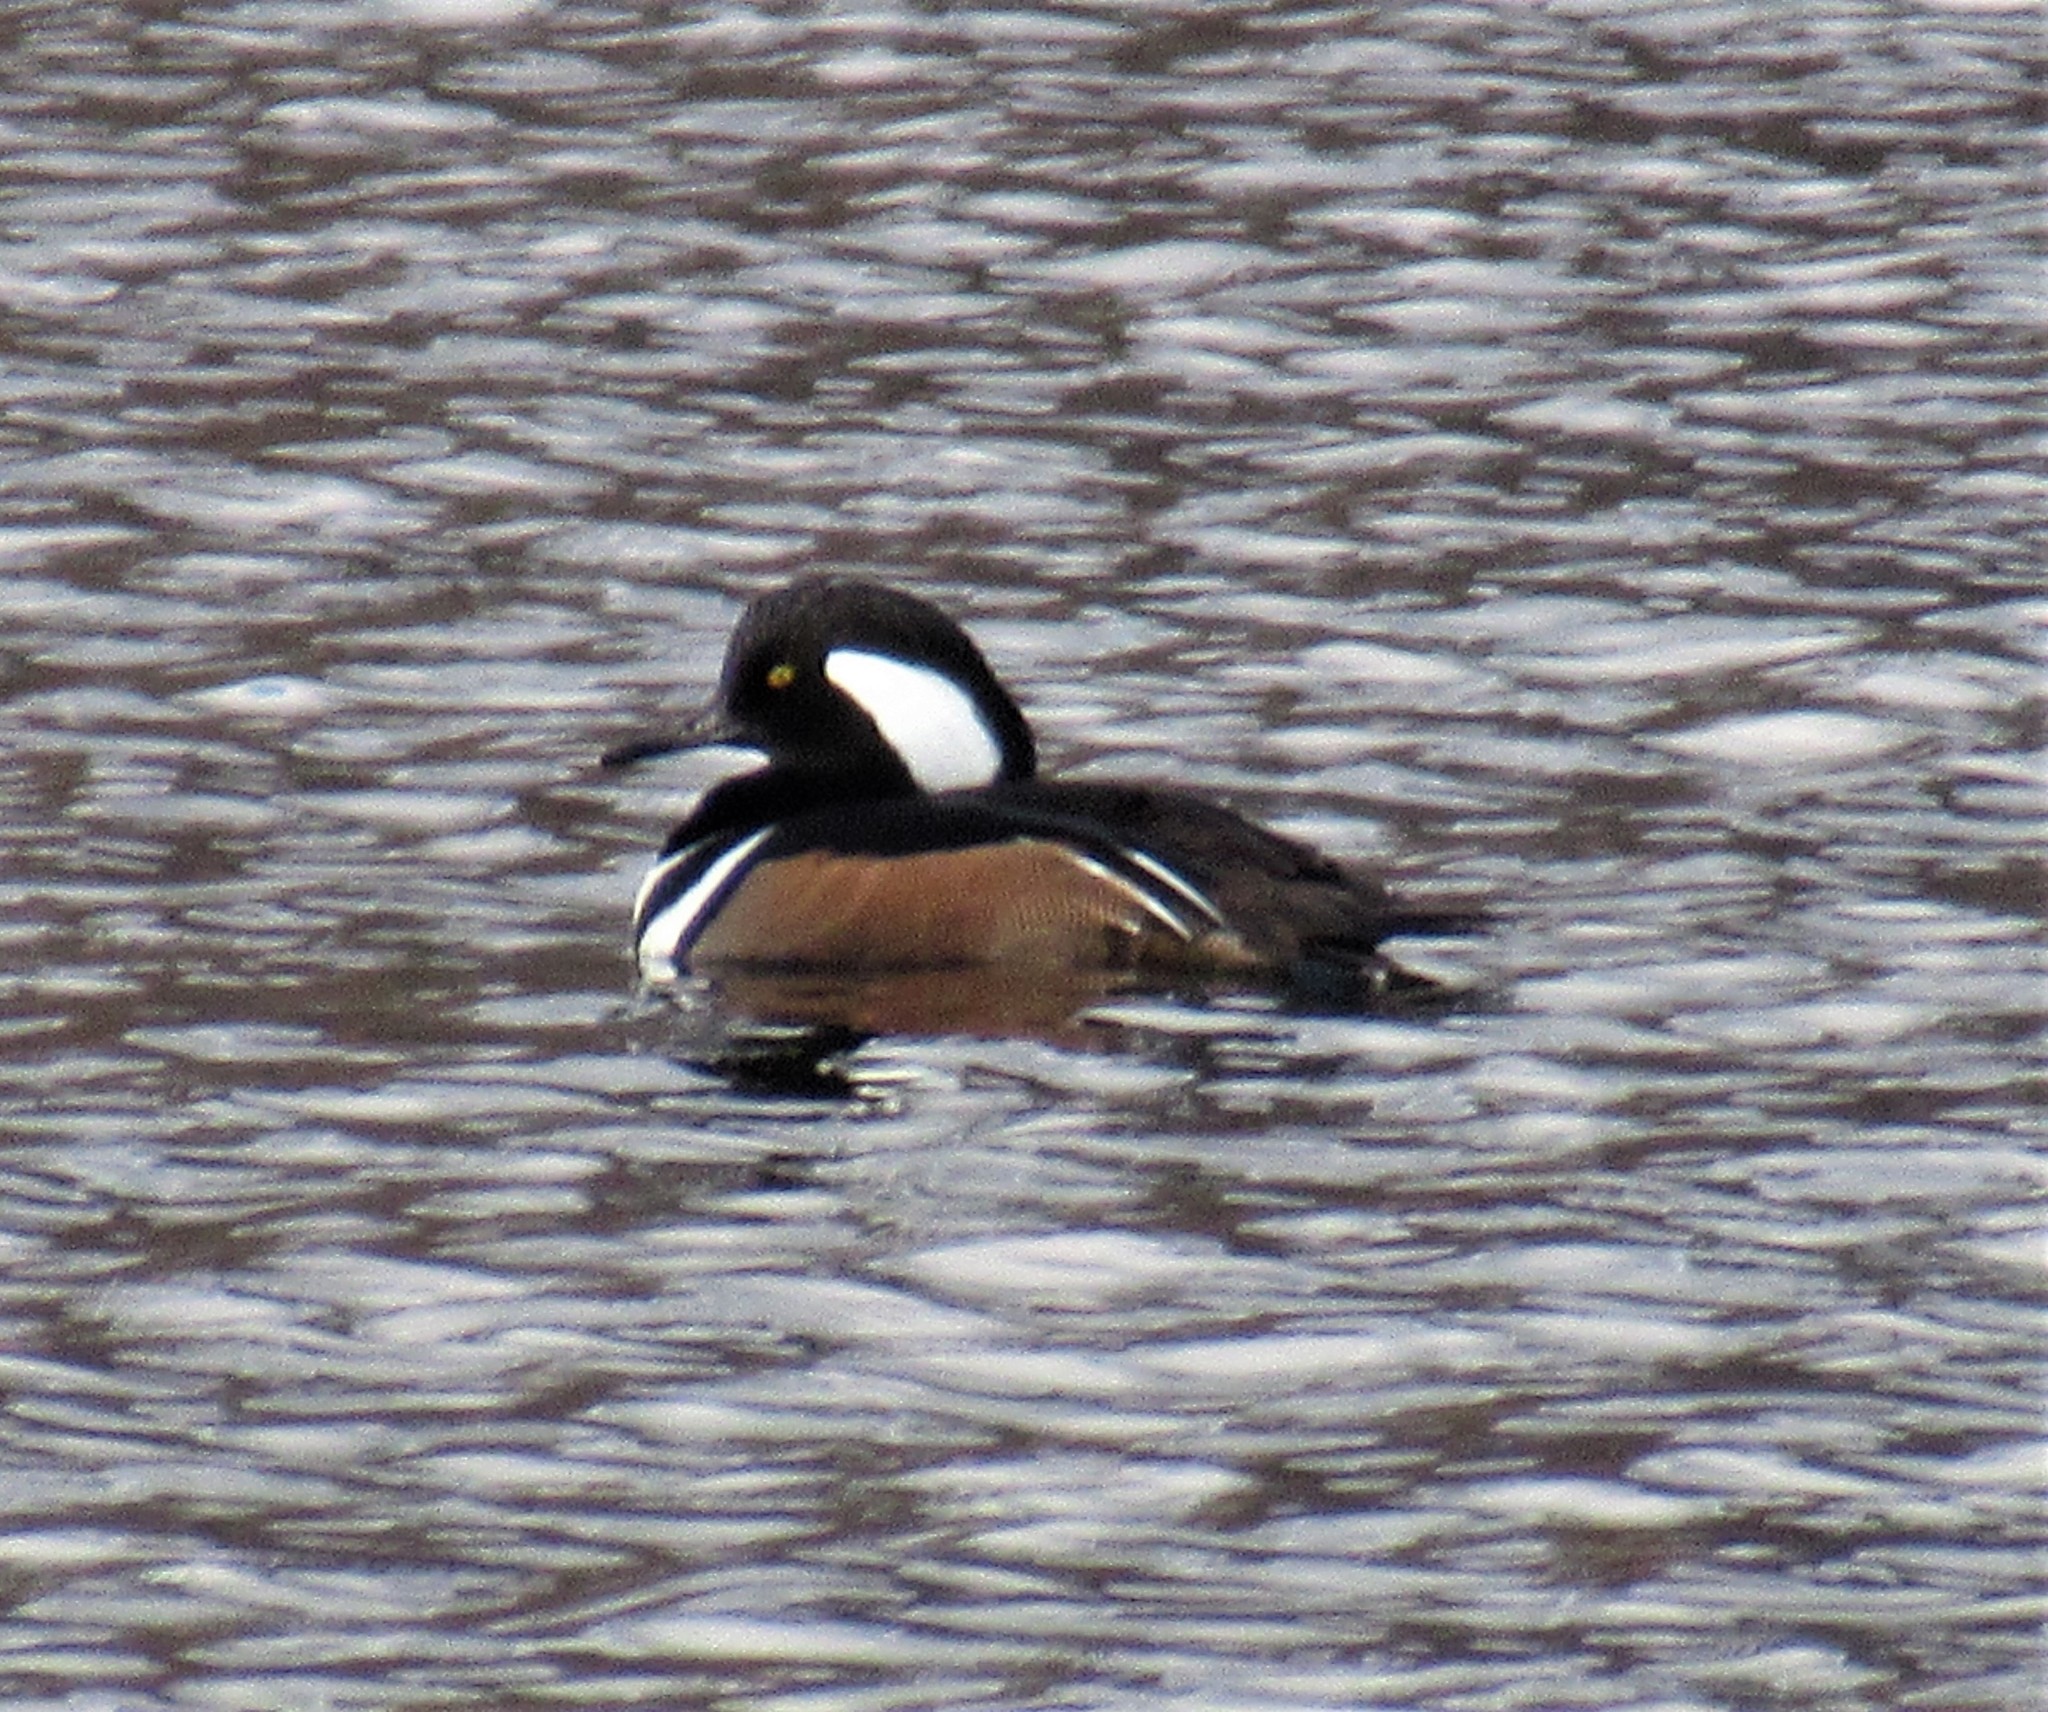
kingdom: Animalia
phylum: Chordata
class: Aves
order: Anseriformes
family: Anatidae
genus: Lophodytes
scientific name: Lophodytes cucullatus
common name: Hooded merganser
